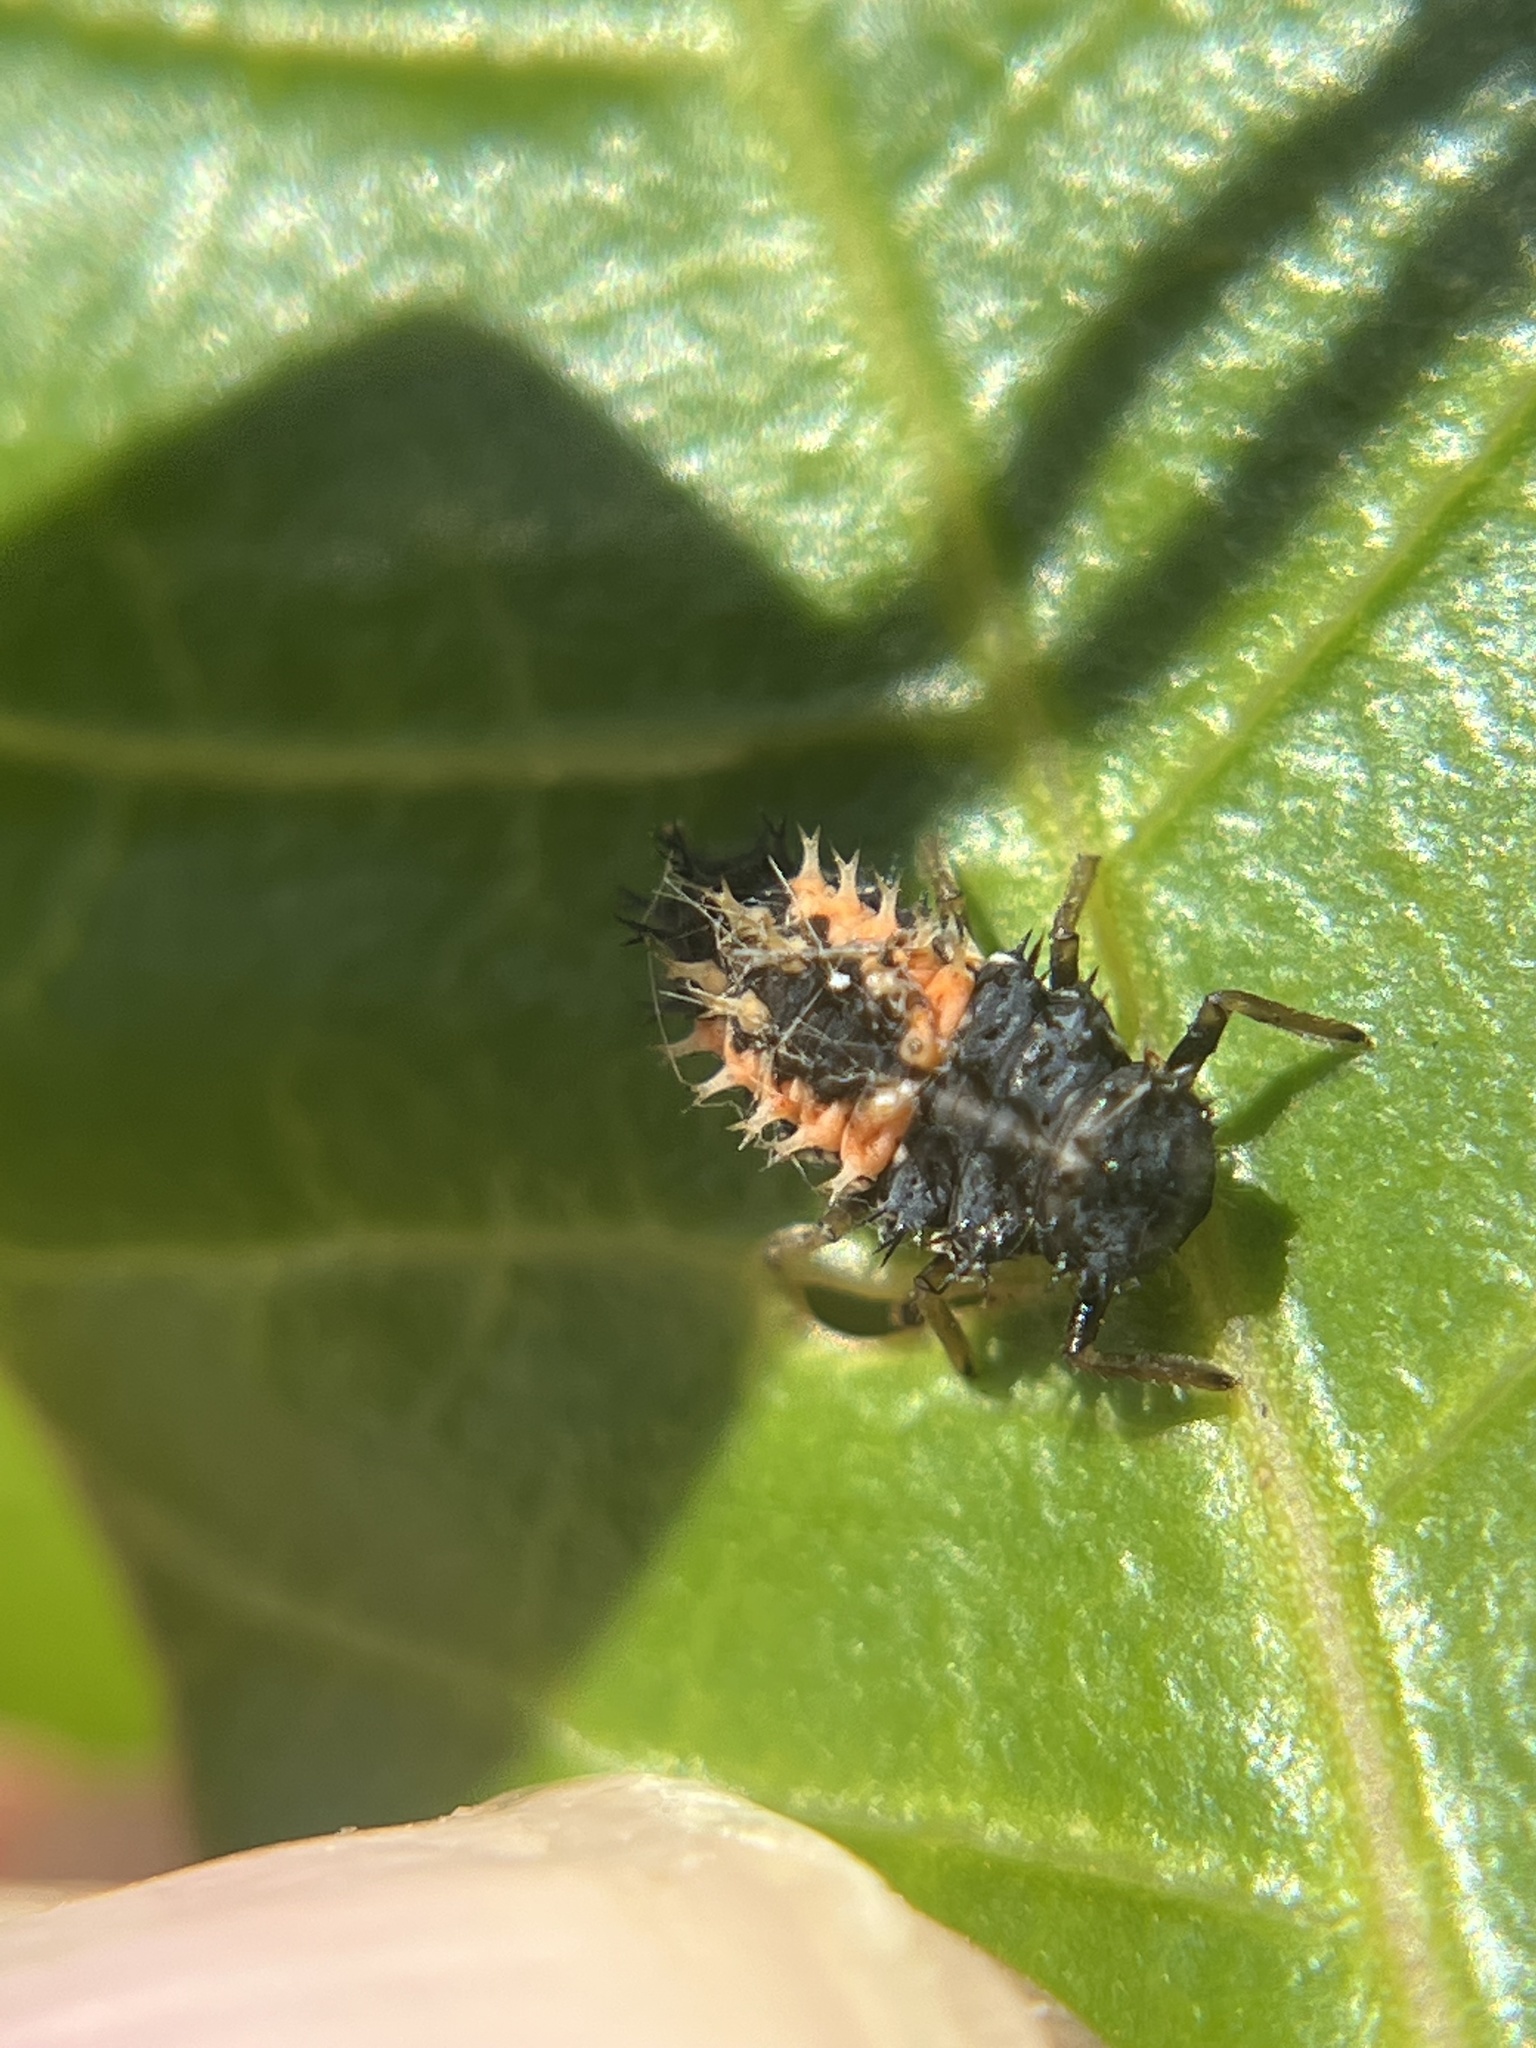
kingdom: Animalia
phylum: Arthropoda
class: Insecta
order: Coleoptera
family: Coccinellidae
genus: Harmonia
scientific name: Harmonia axyridis
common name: Harlequin ladybird
